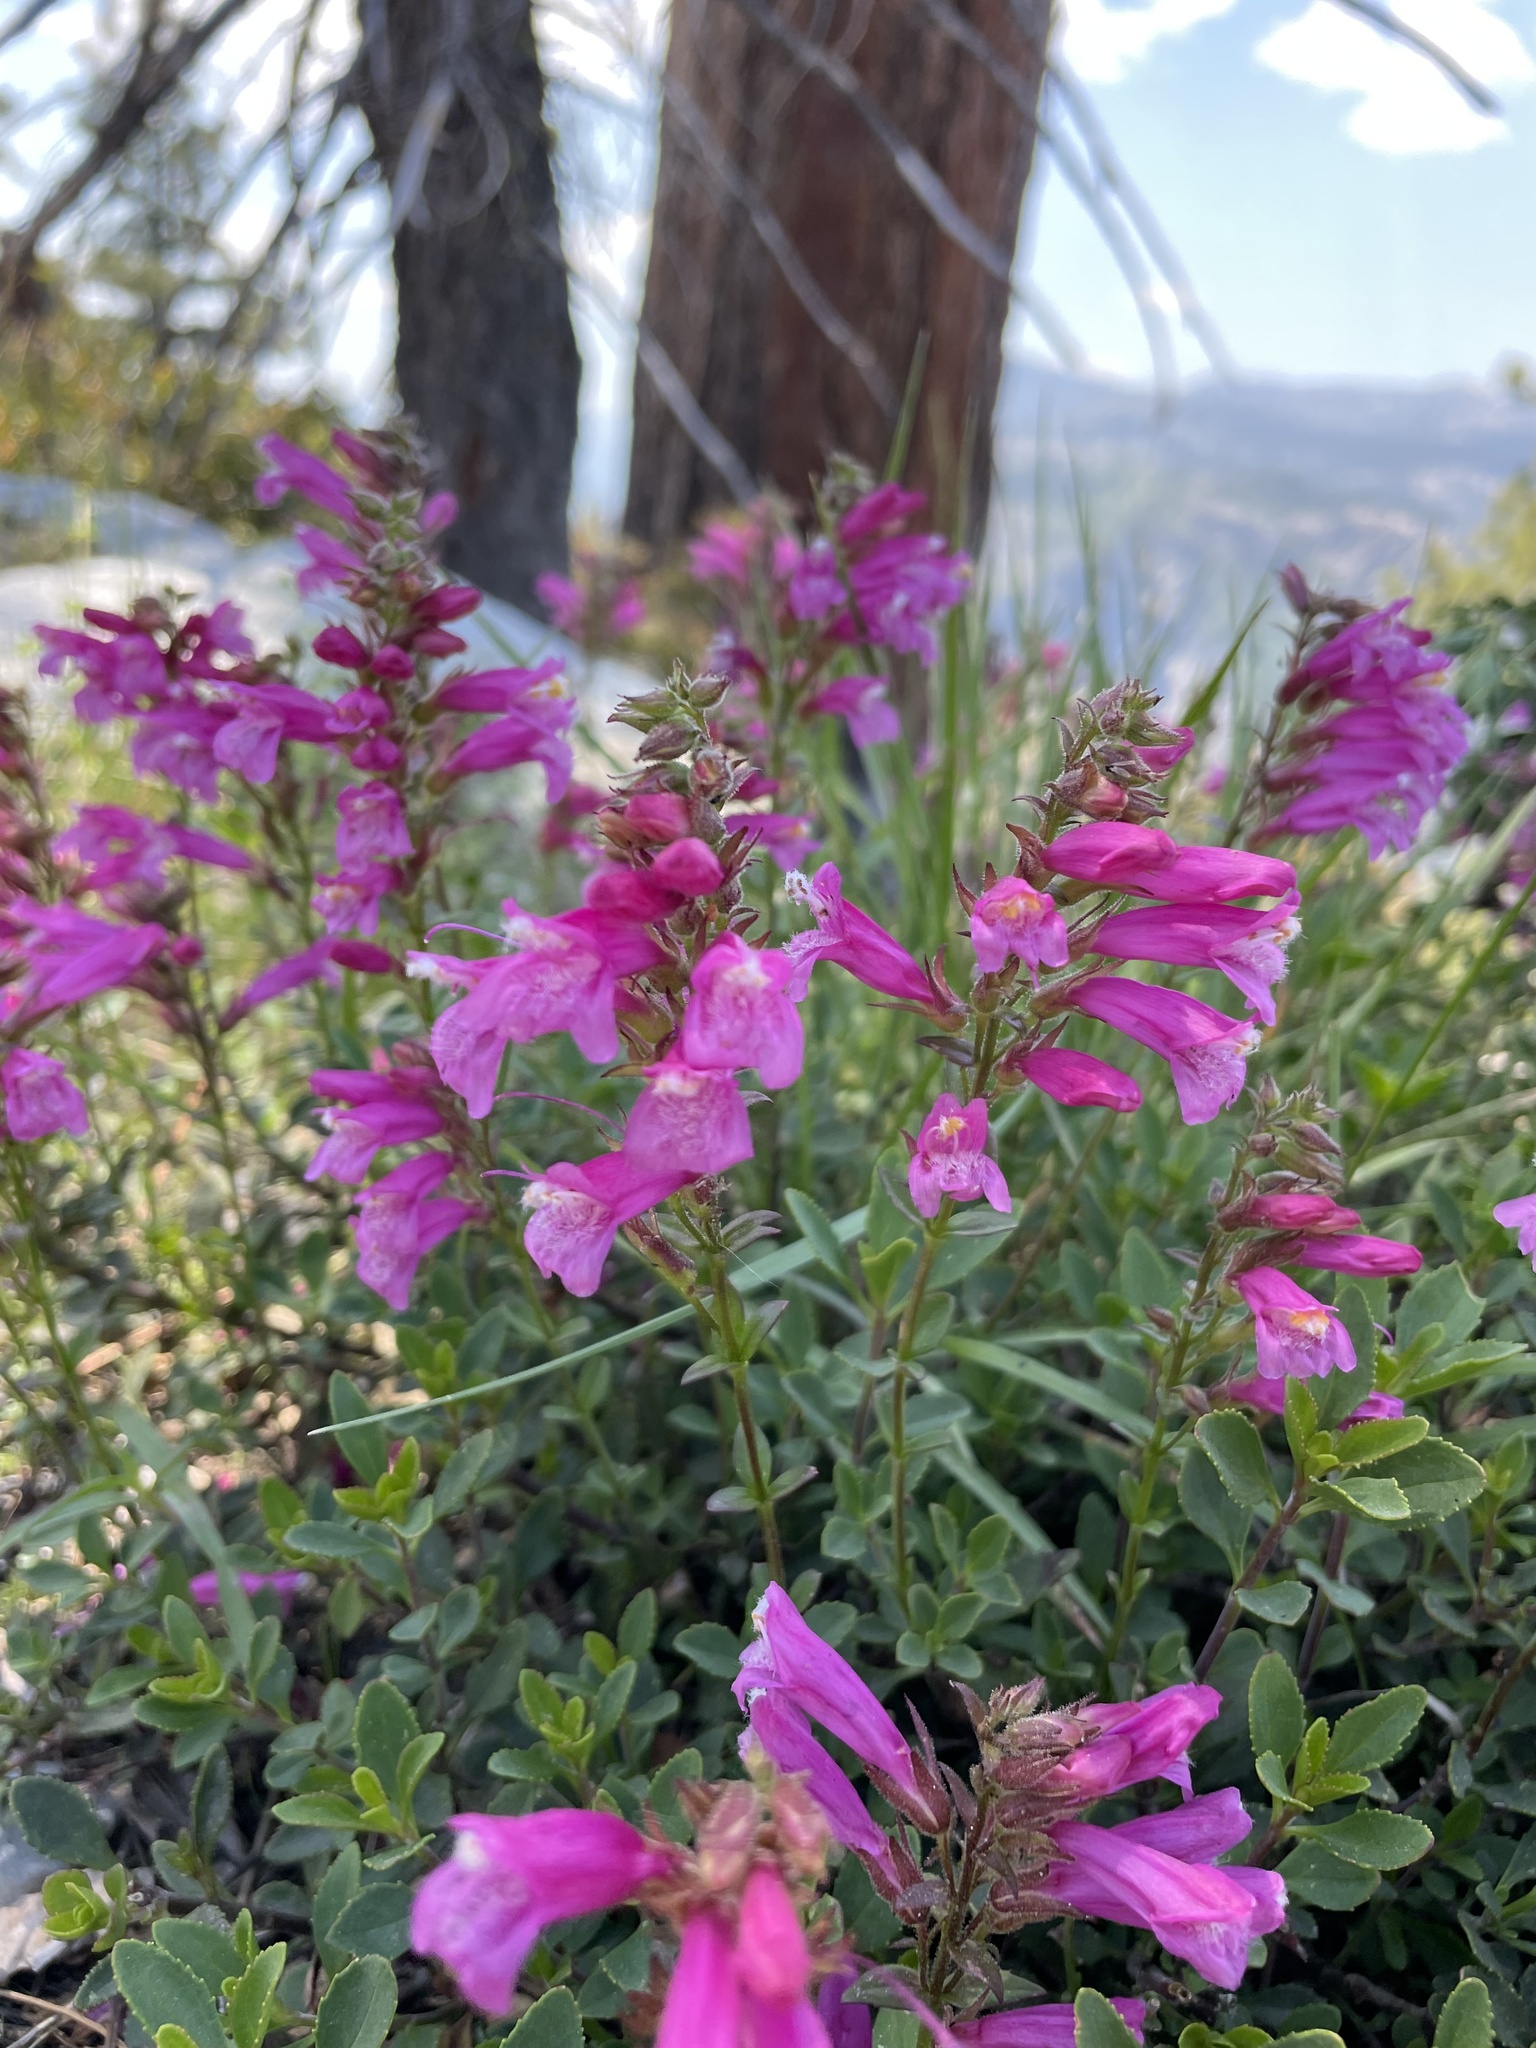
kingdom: Plantae
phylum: Tracheophyta
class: Magnoliopsida
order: Lamiales
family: Plantaginaceae
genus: Penstemon
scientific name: Penstemon newberryi
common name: Mountain-pride
